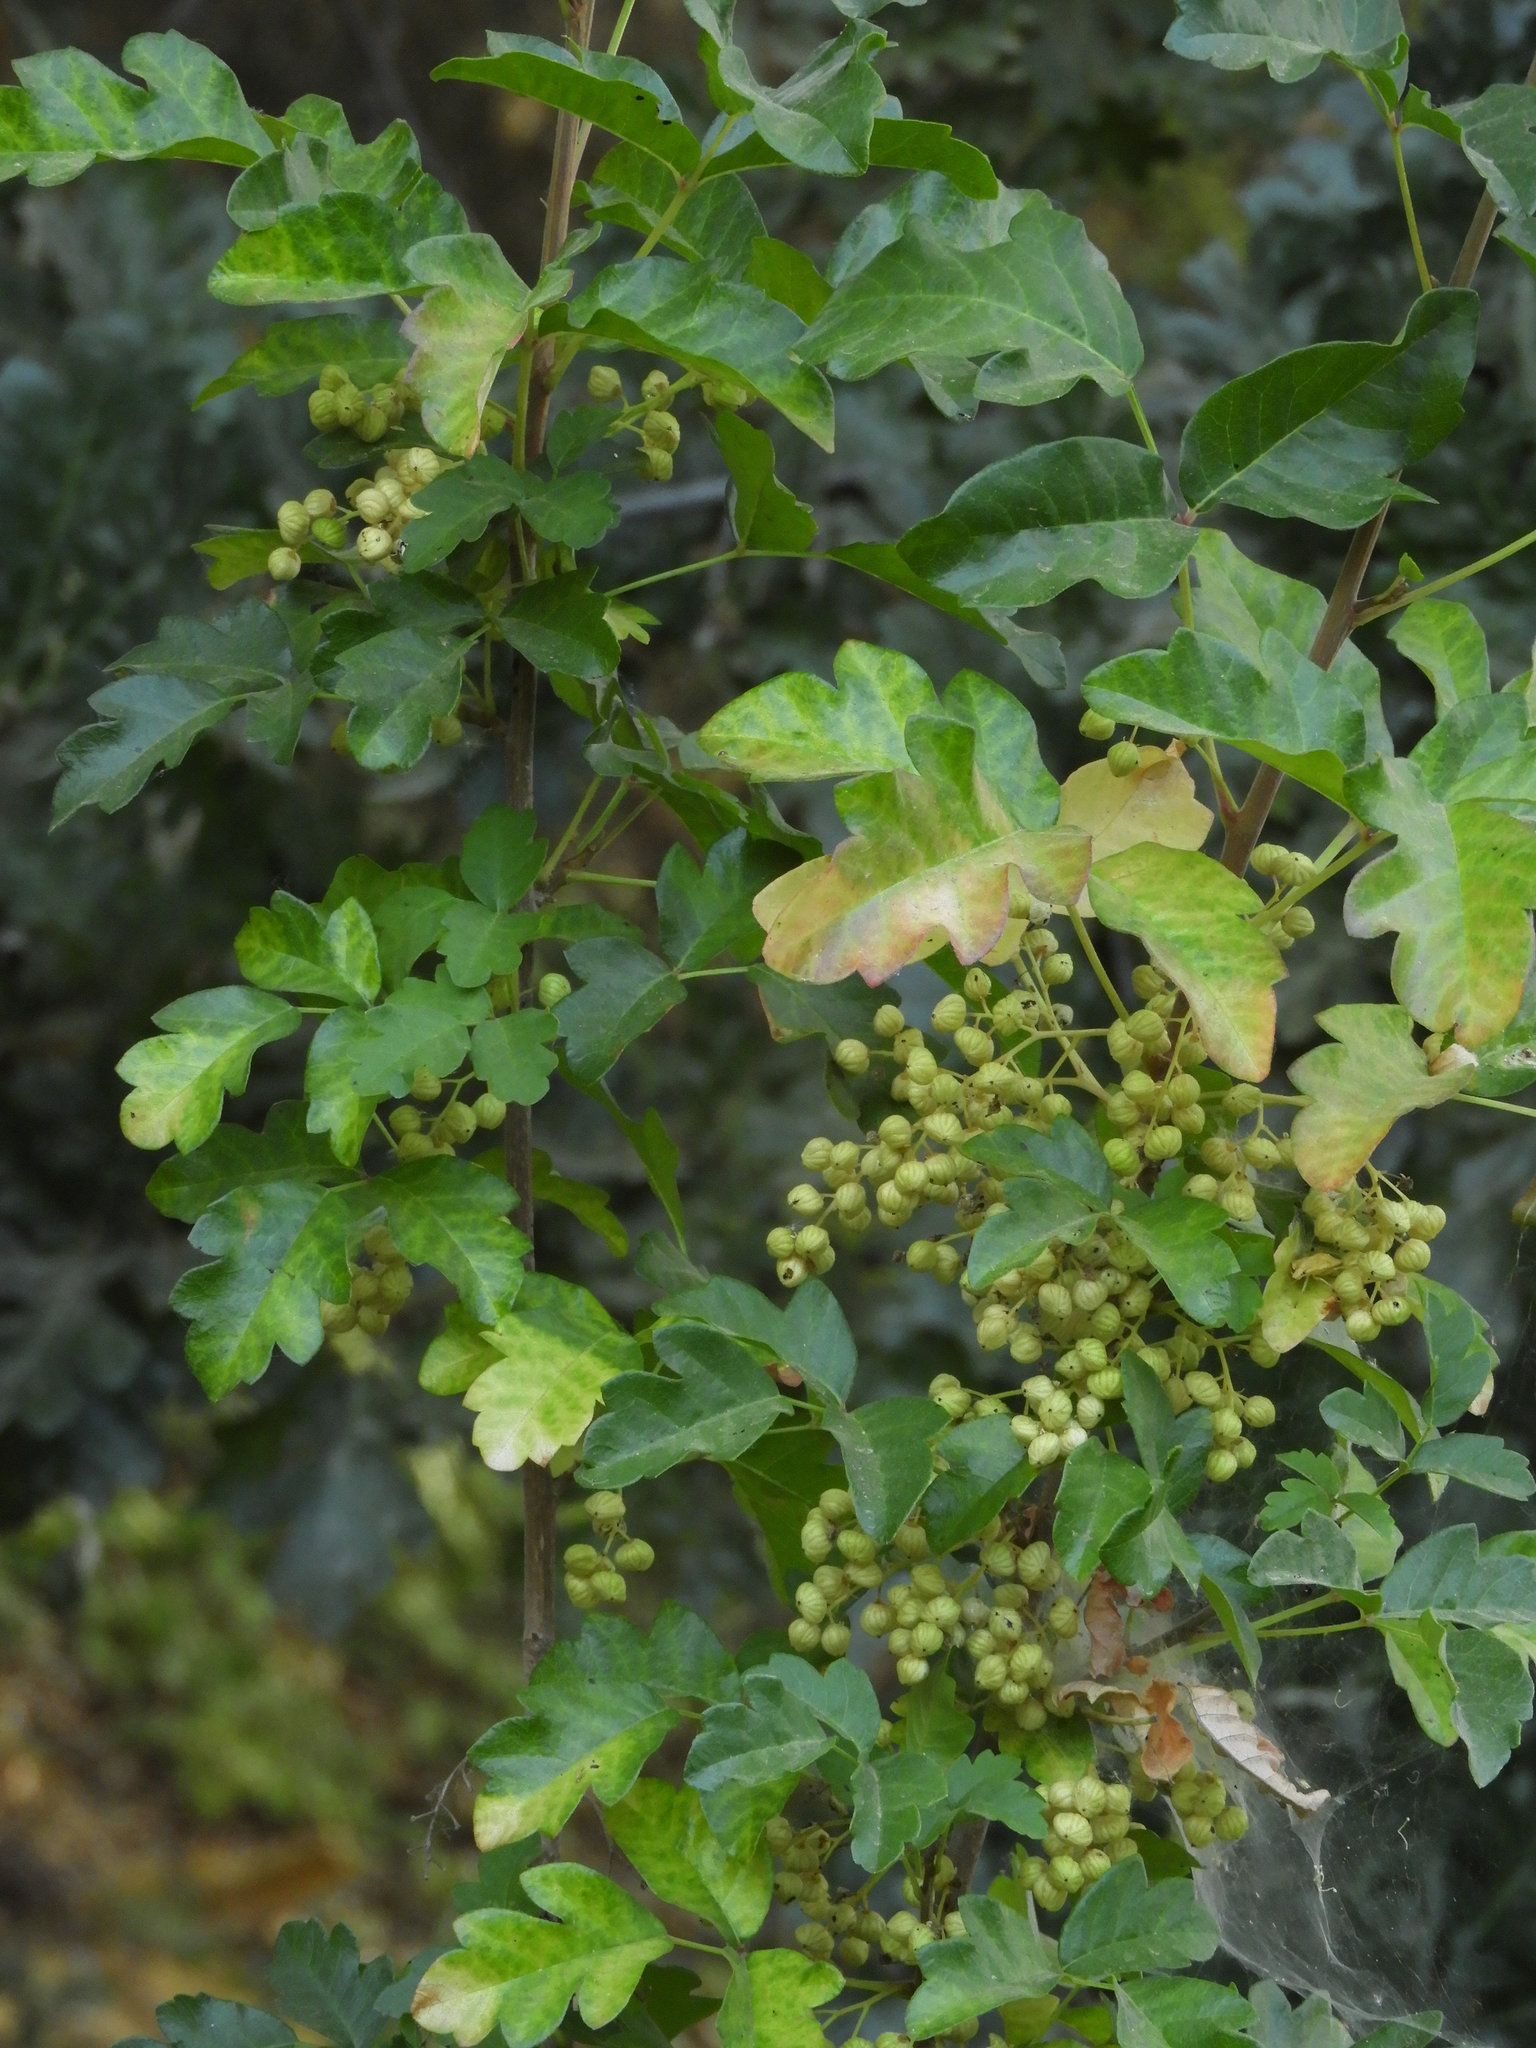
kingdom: Plantae
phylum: Tracheophyta
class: Magnoliopsida
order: Sapindales
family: Anacardiaceae
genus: Toxicodendron
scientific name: Toxicodendron diversilobum
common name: Pacific poison-oak
